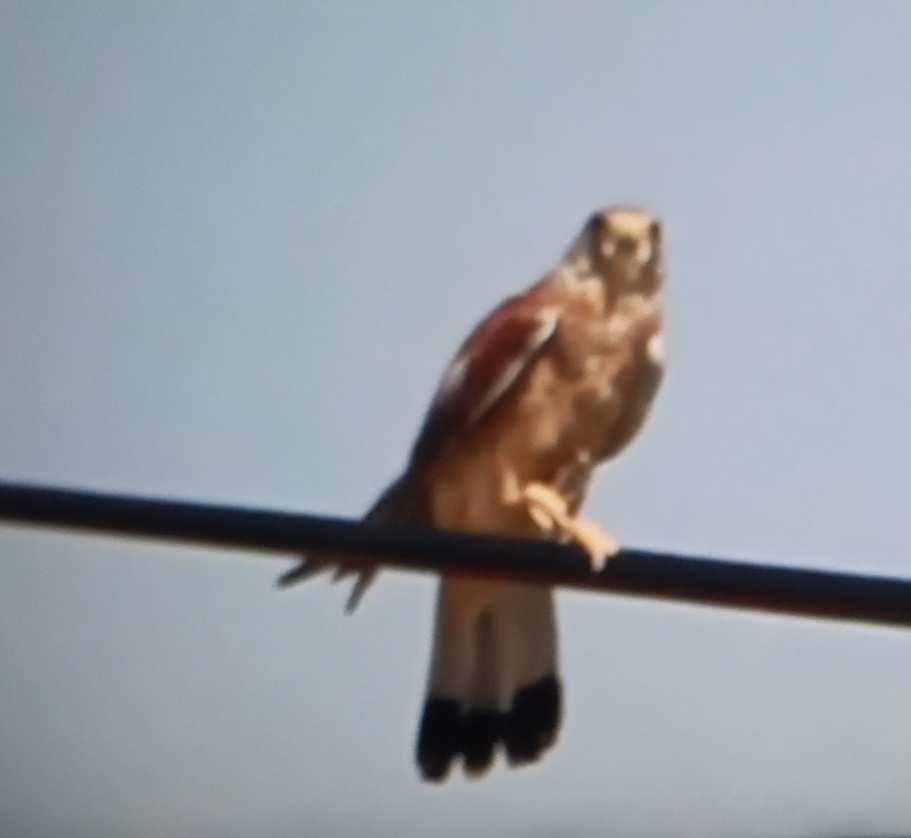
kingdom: Animalia
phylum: Chordata
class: Aves
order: Falconiformes
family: Falconidae
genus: Falco
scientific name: Falco naumanni
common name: Lesser kestrel
